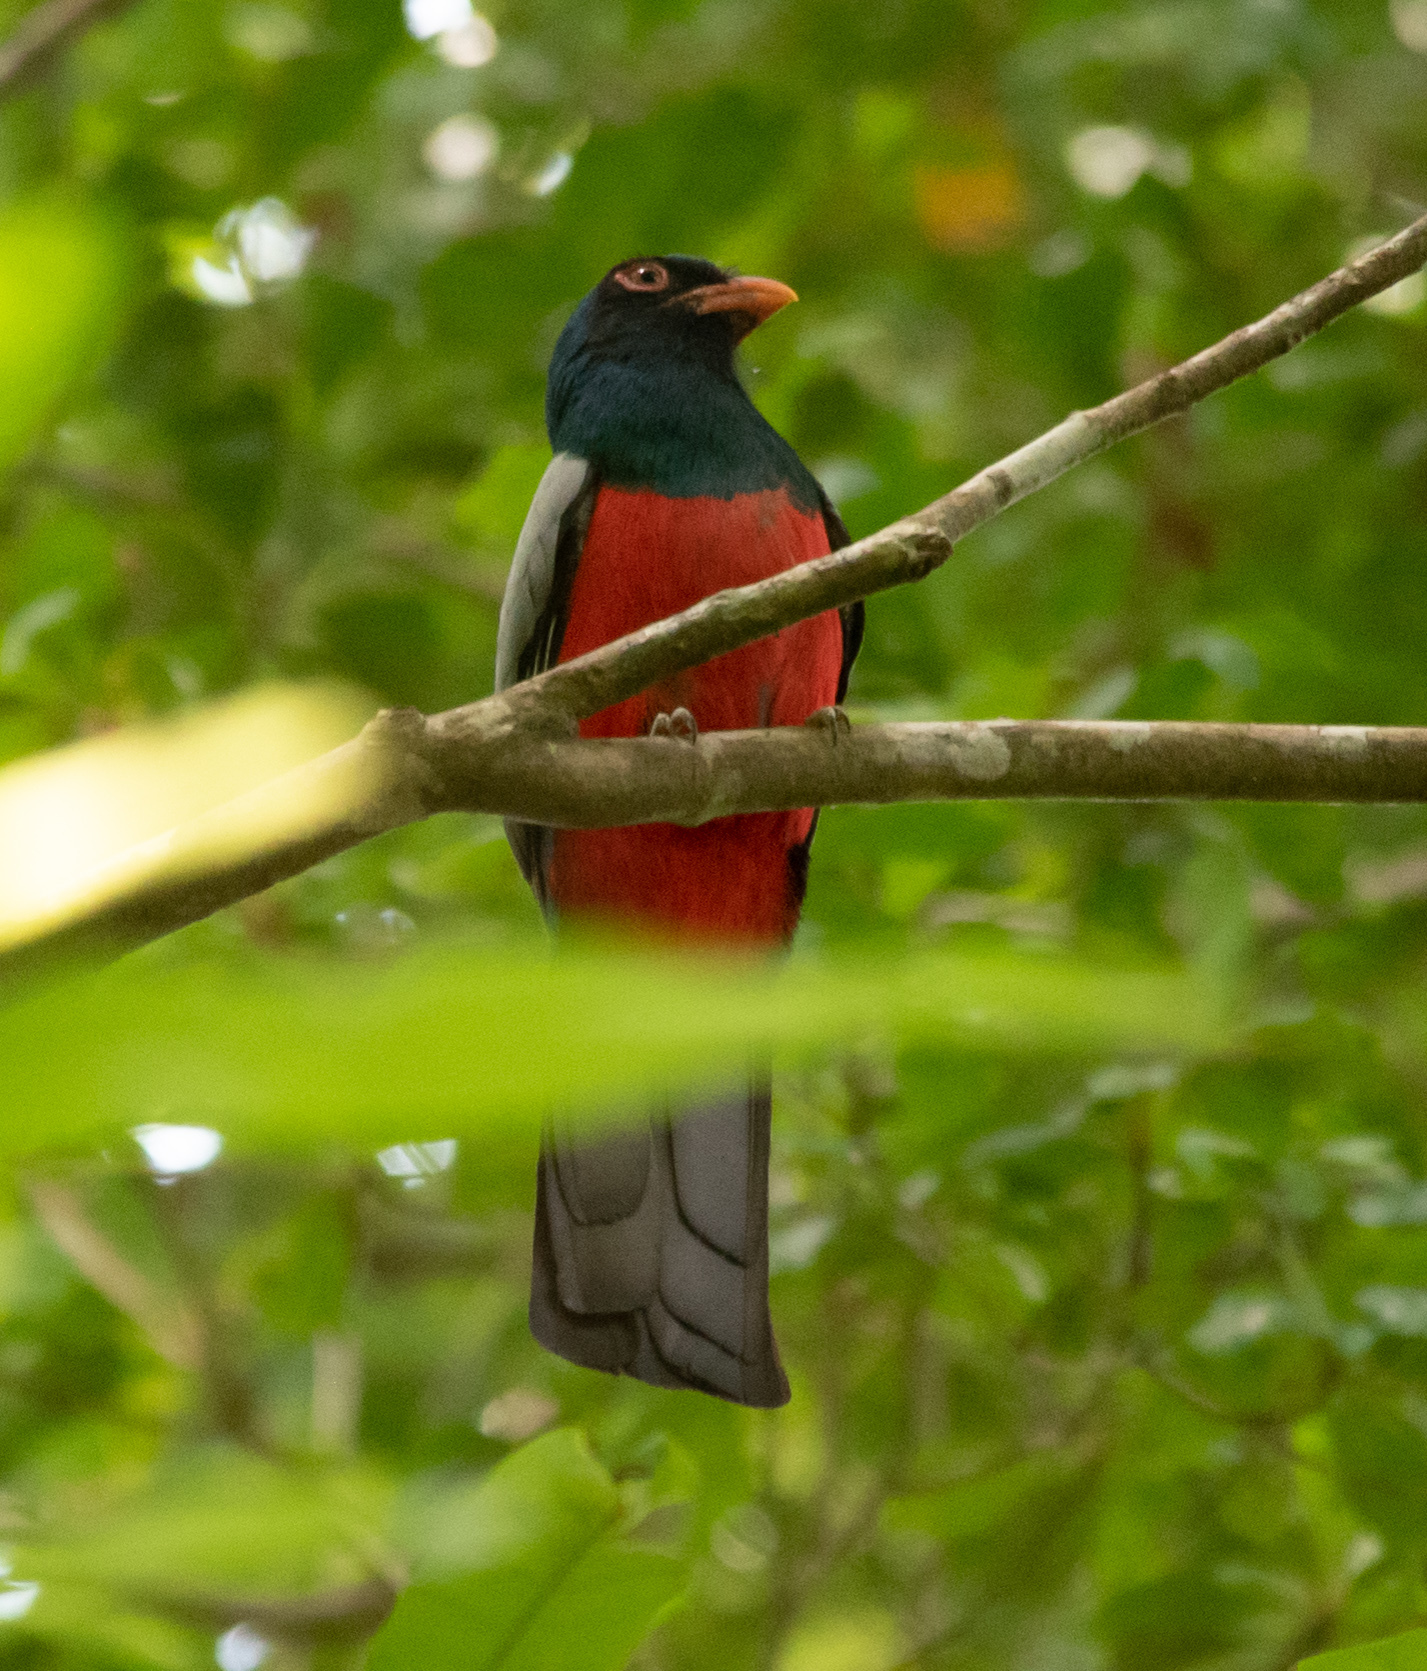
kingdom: Animalia
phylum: Chordata
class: Aves
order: Trogoniformes
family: Trogonidae
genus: Trogon
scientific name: Trogon massena
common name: Slaty-tailed trogon
